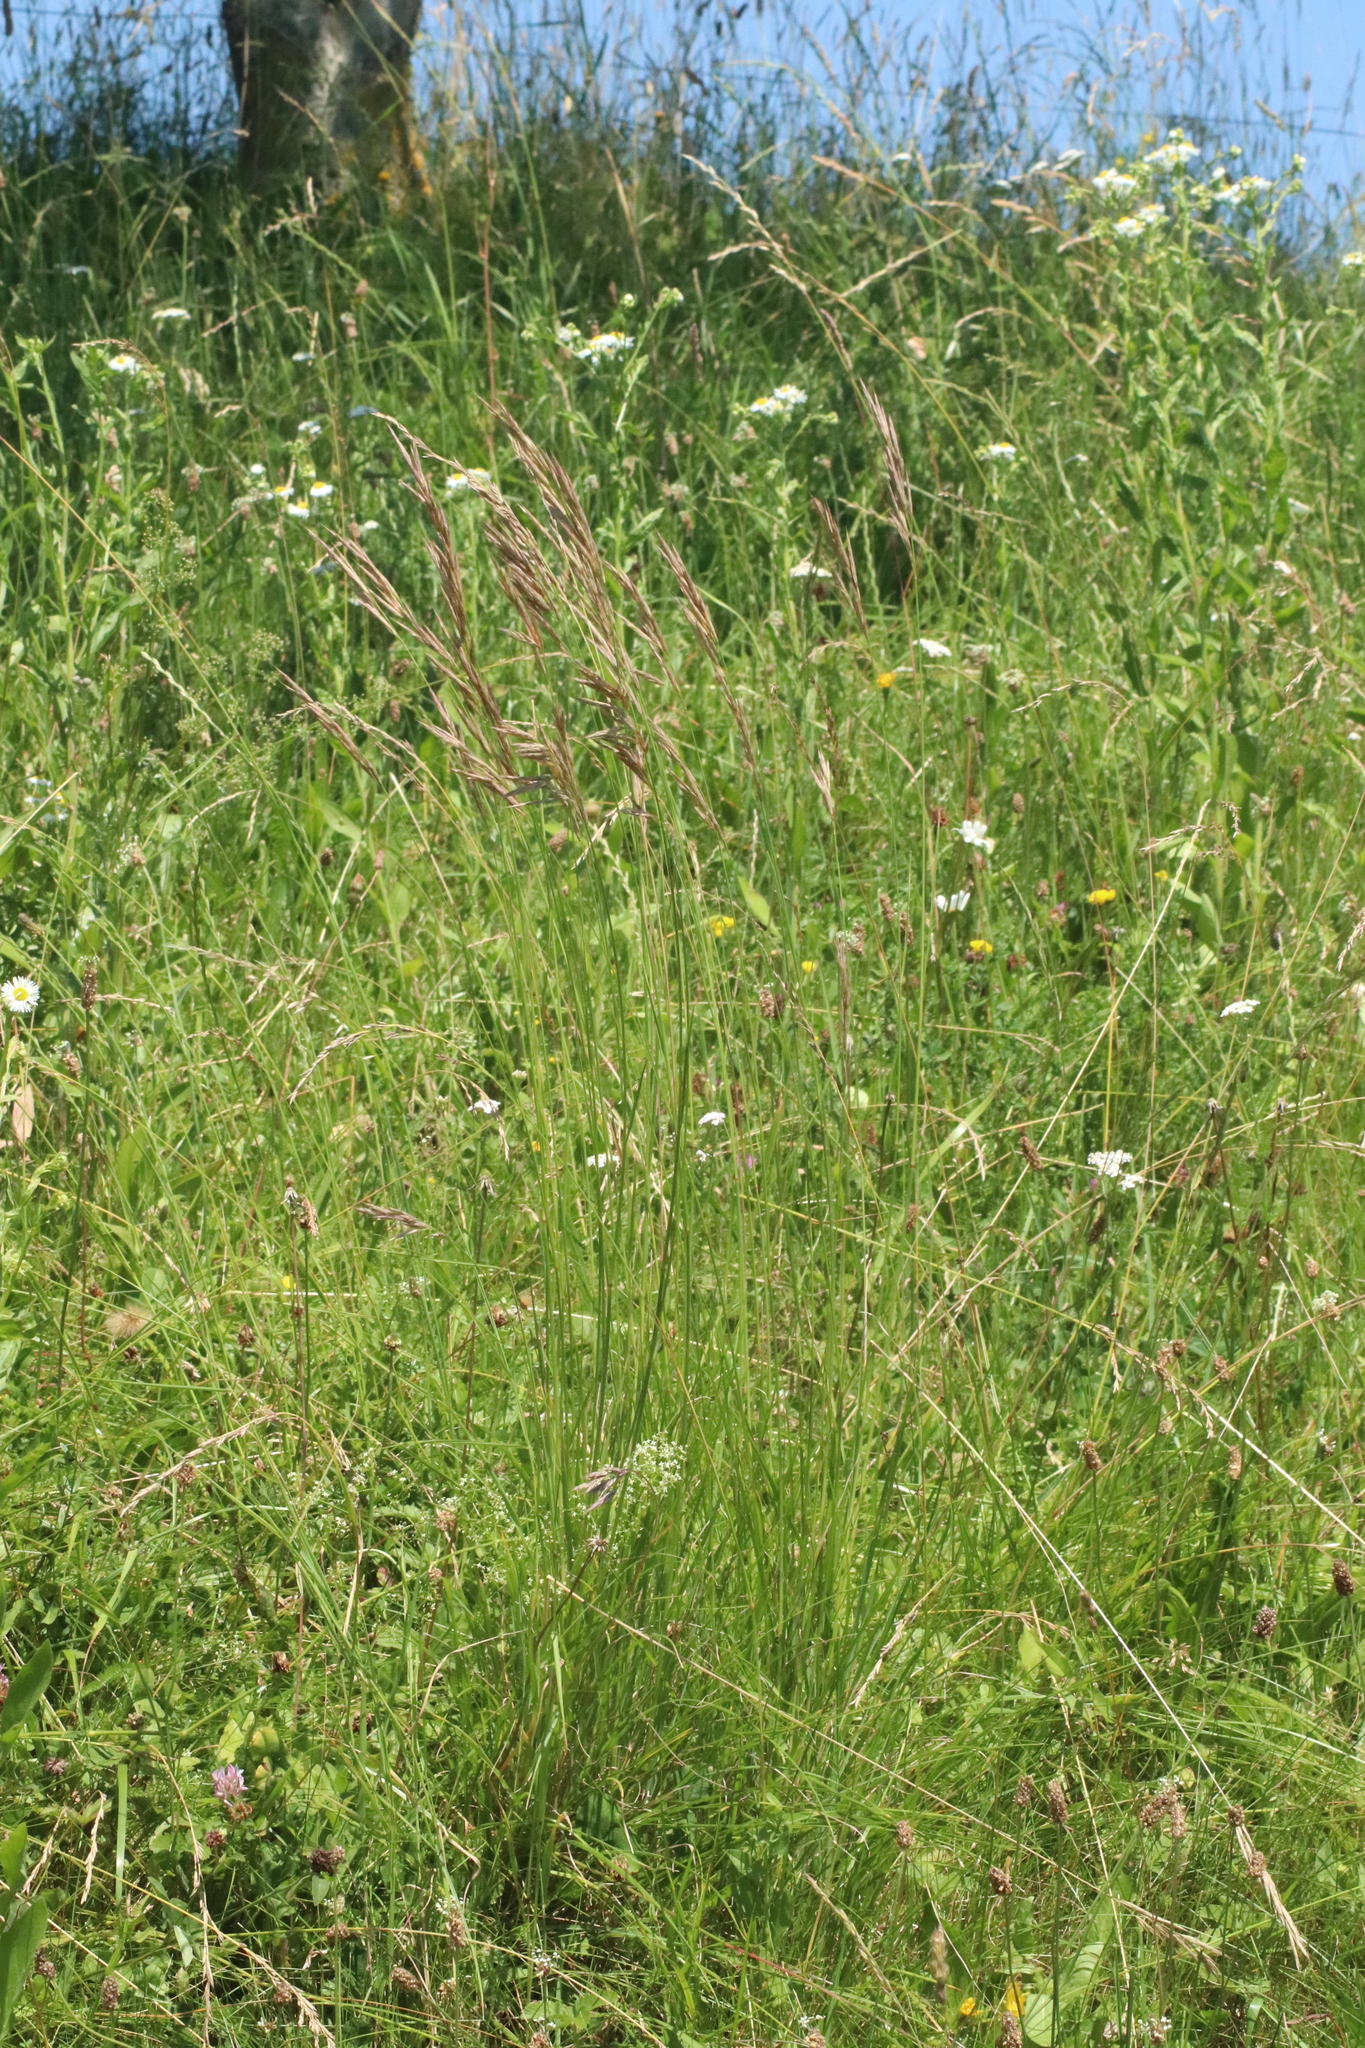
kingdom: Plantae
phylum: Tracheophyta
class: Liliopsida
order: Poales
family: Poaceae
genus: Bromus
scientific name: Bromus erectus
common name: Erect brome
